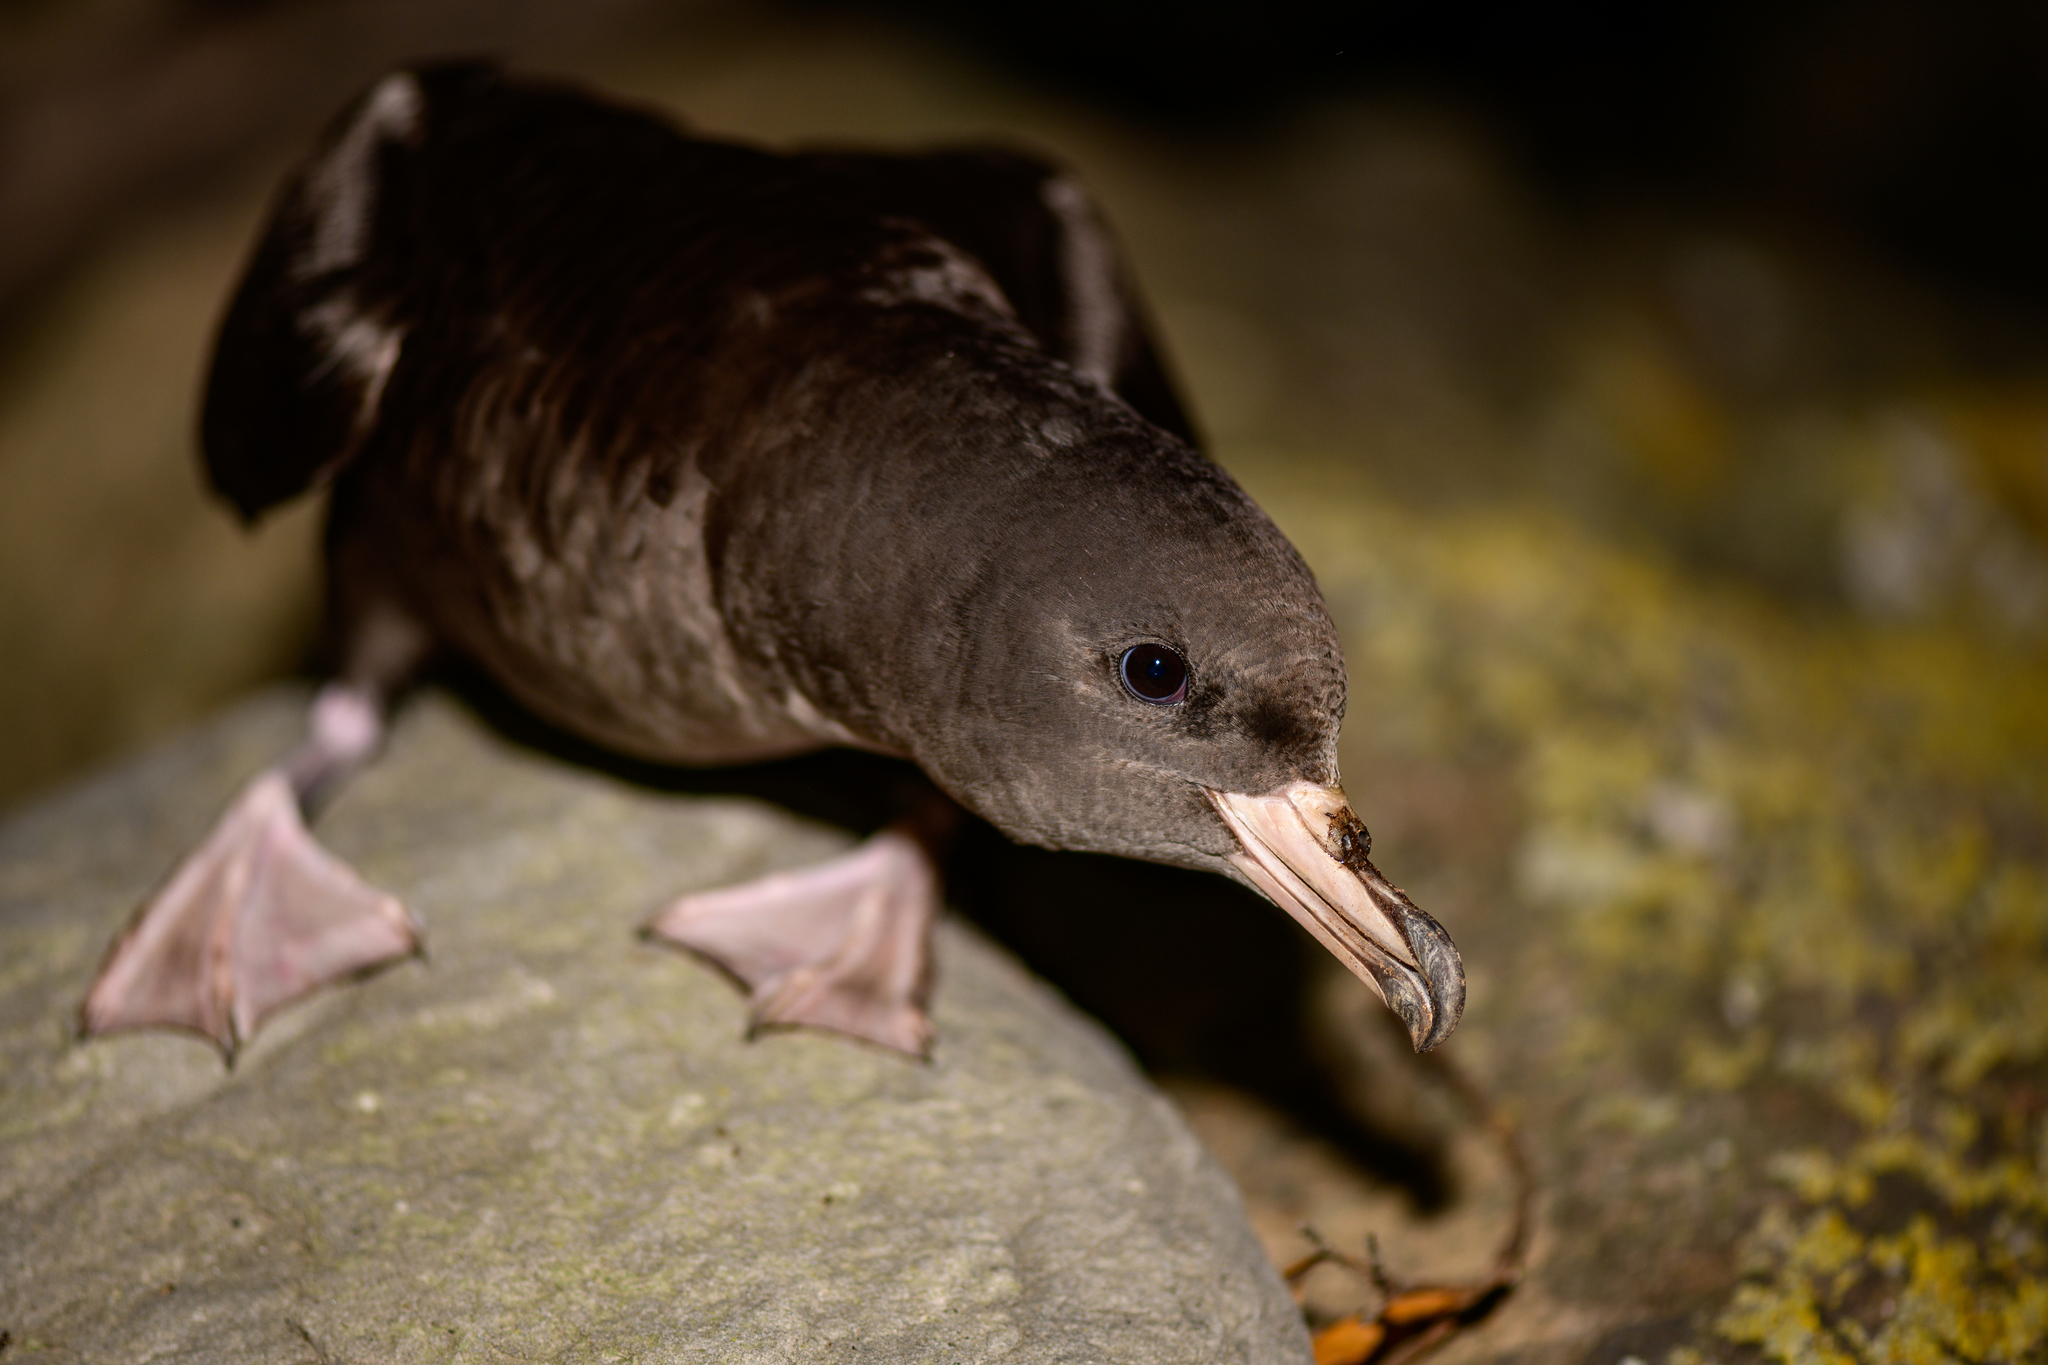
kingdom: Animalia
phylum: Chordata
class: Aves
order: Procellariiformes
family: Procellariidae
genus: Puffinus
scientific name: Puffinus carneipes
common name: Flesh-footed shearwater
